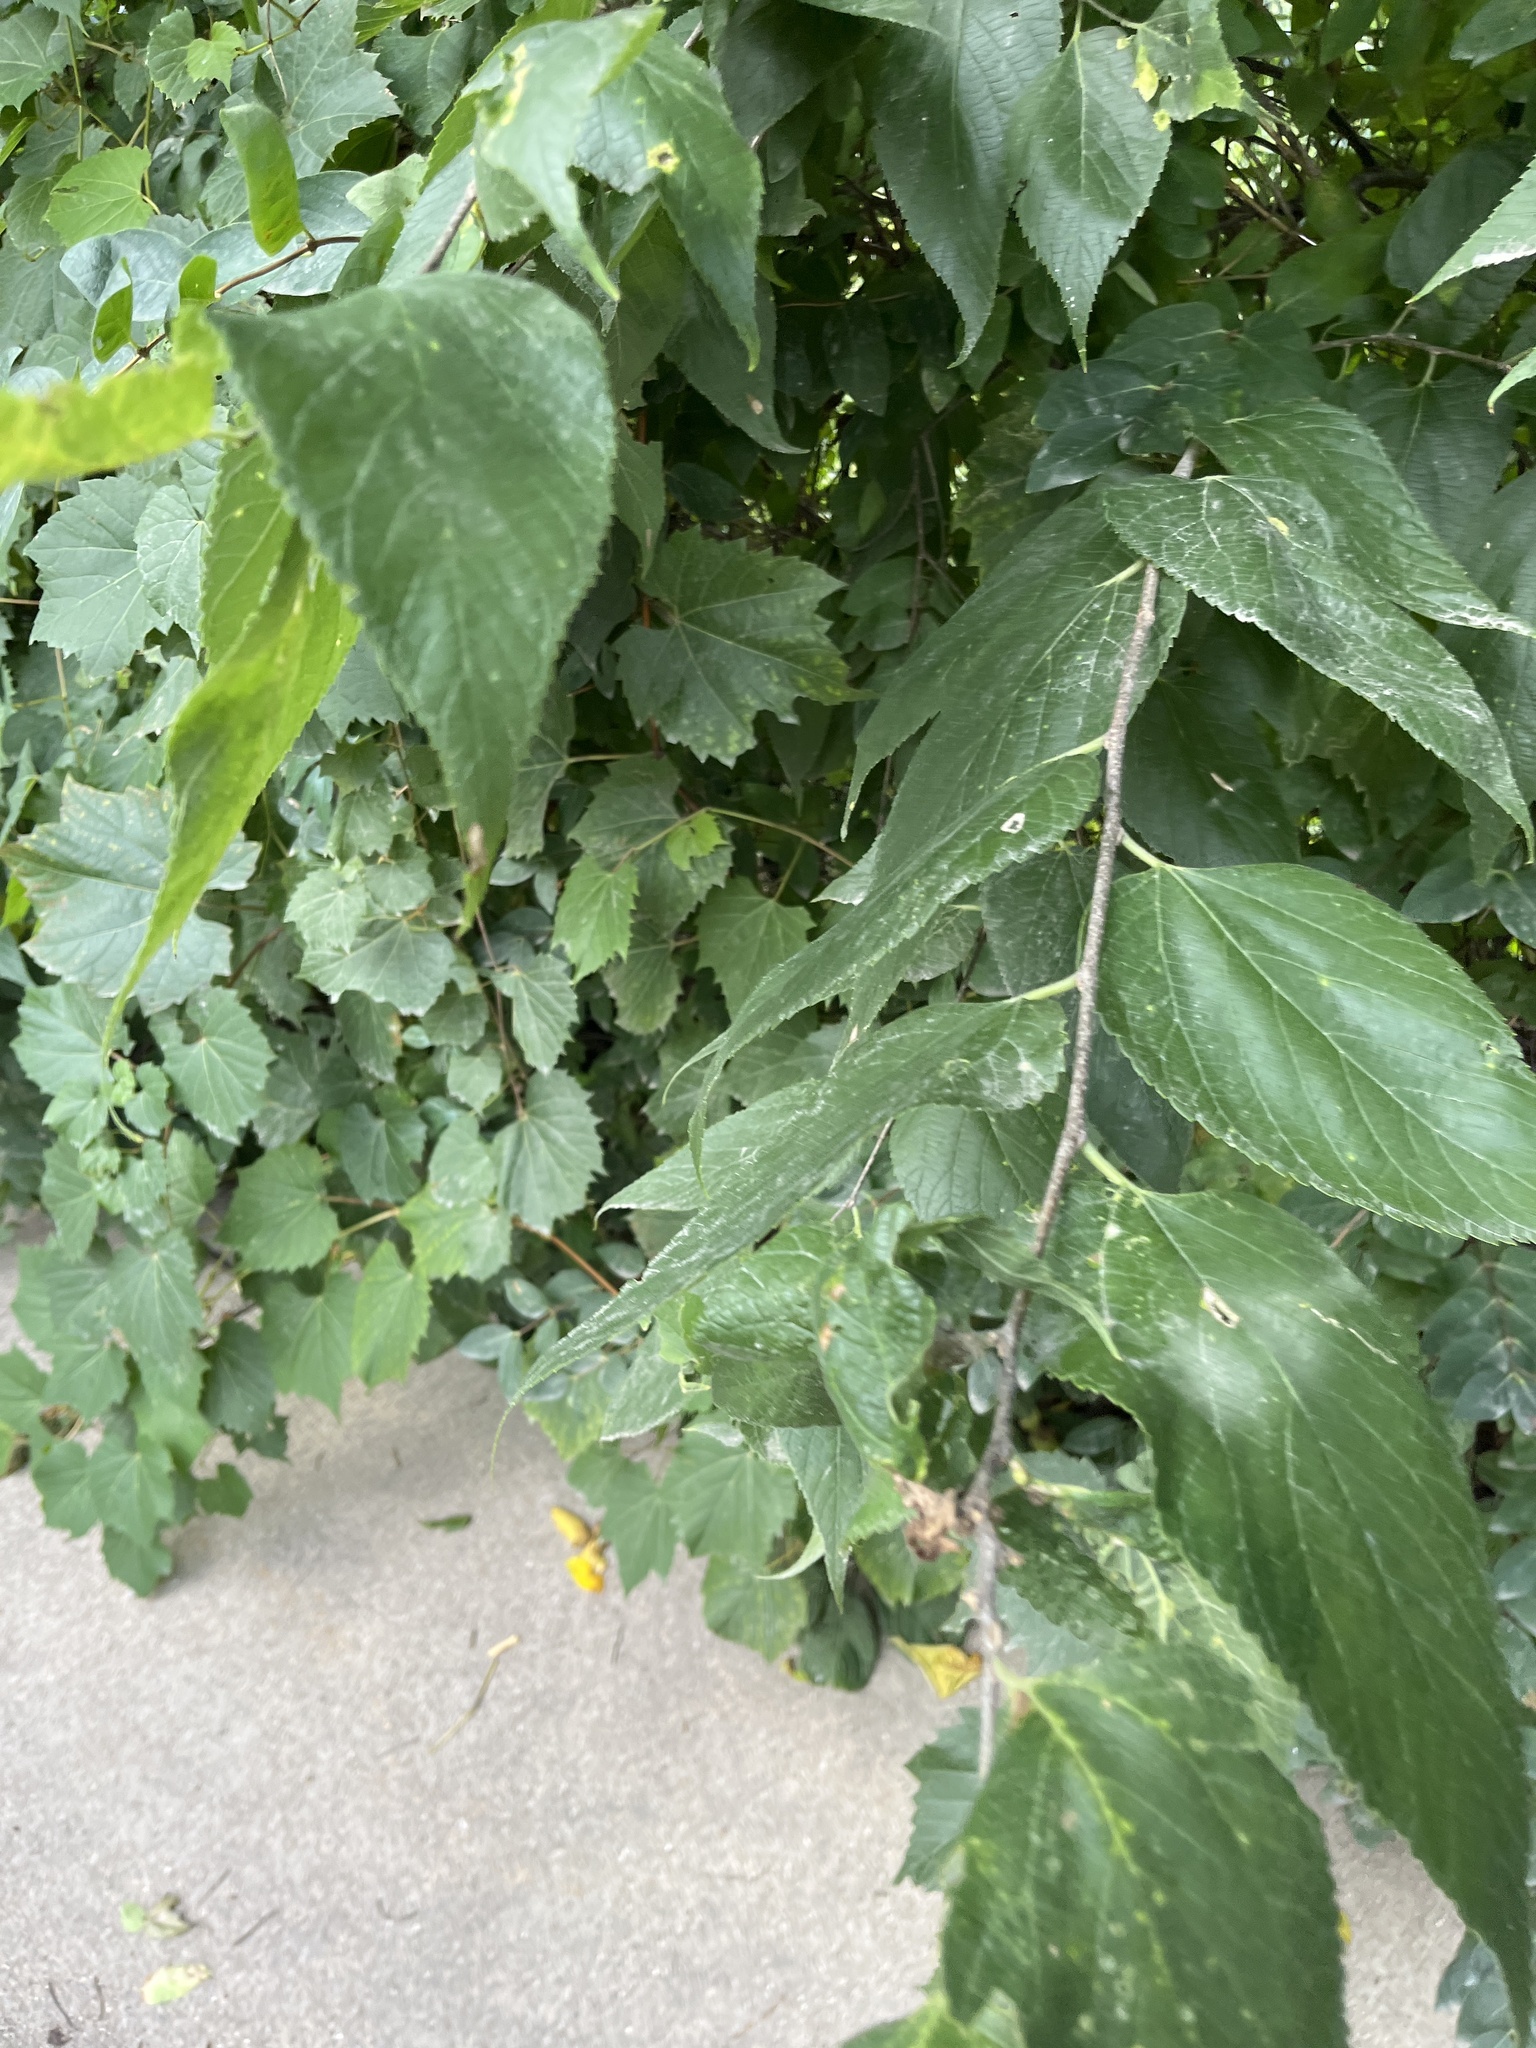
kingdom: Plantae
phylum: Tracheophyta
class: Magnoliopsida
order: Rosales
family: Cannabaceae
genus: Celtis
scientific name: Celtis occidentalis
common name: Common hackberry
